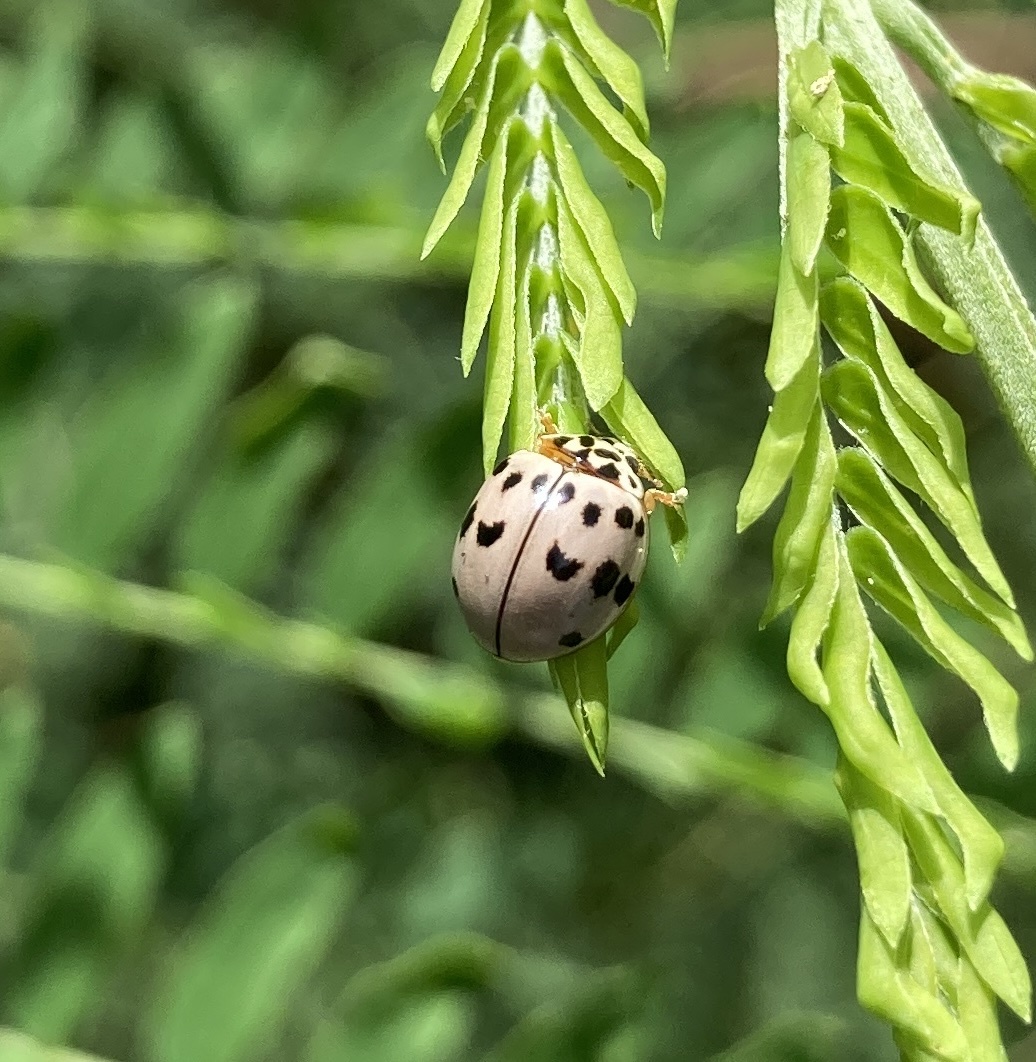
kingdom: Animalia
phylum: Arthropoda
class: Insecta
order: Coleoptera
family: Coccinellidae
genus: Olla
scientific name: Olla v-nigrum
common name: Ashy gray lady beetle
